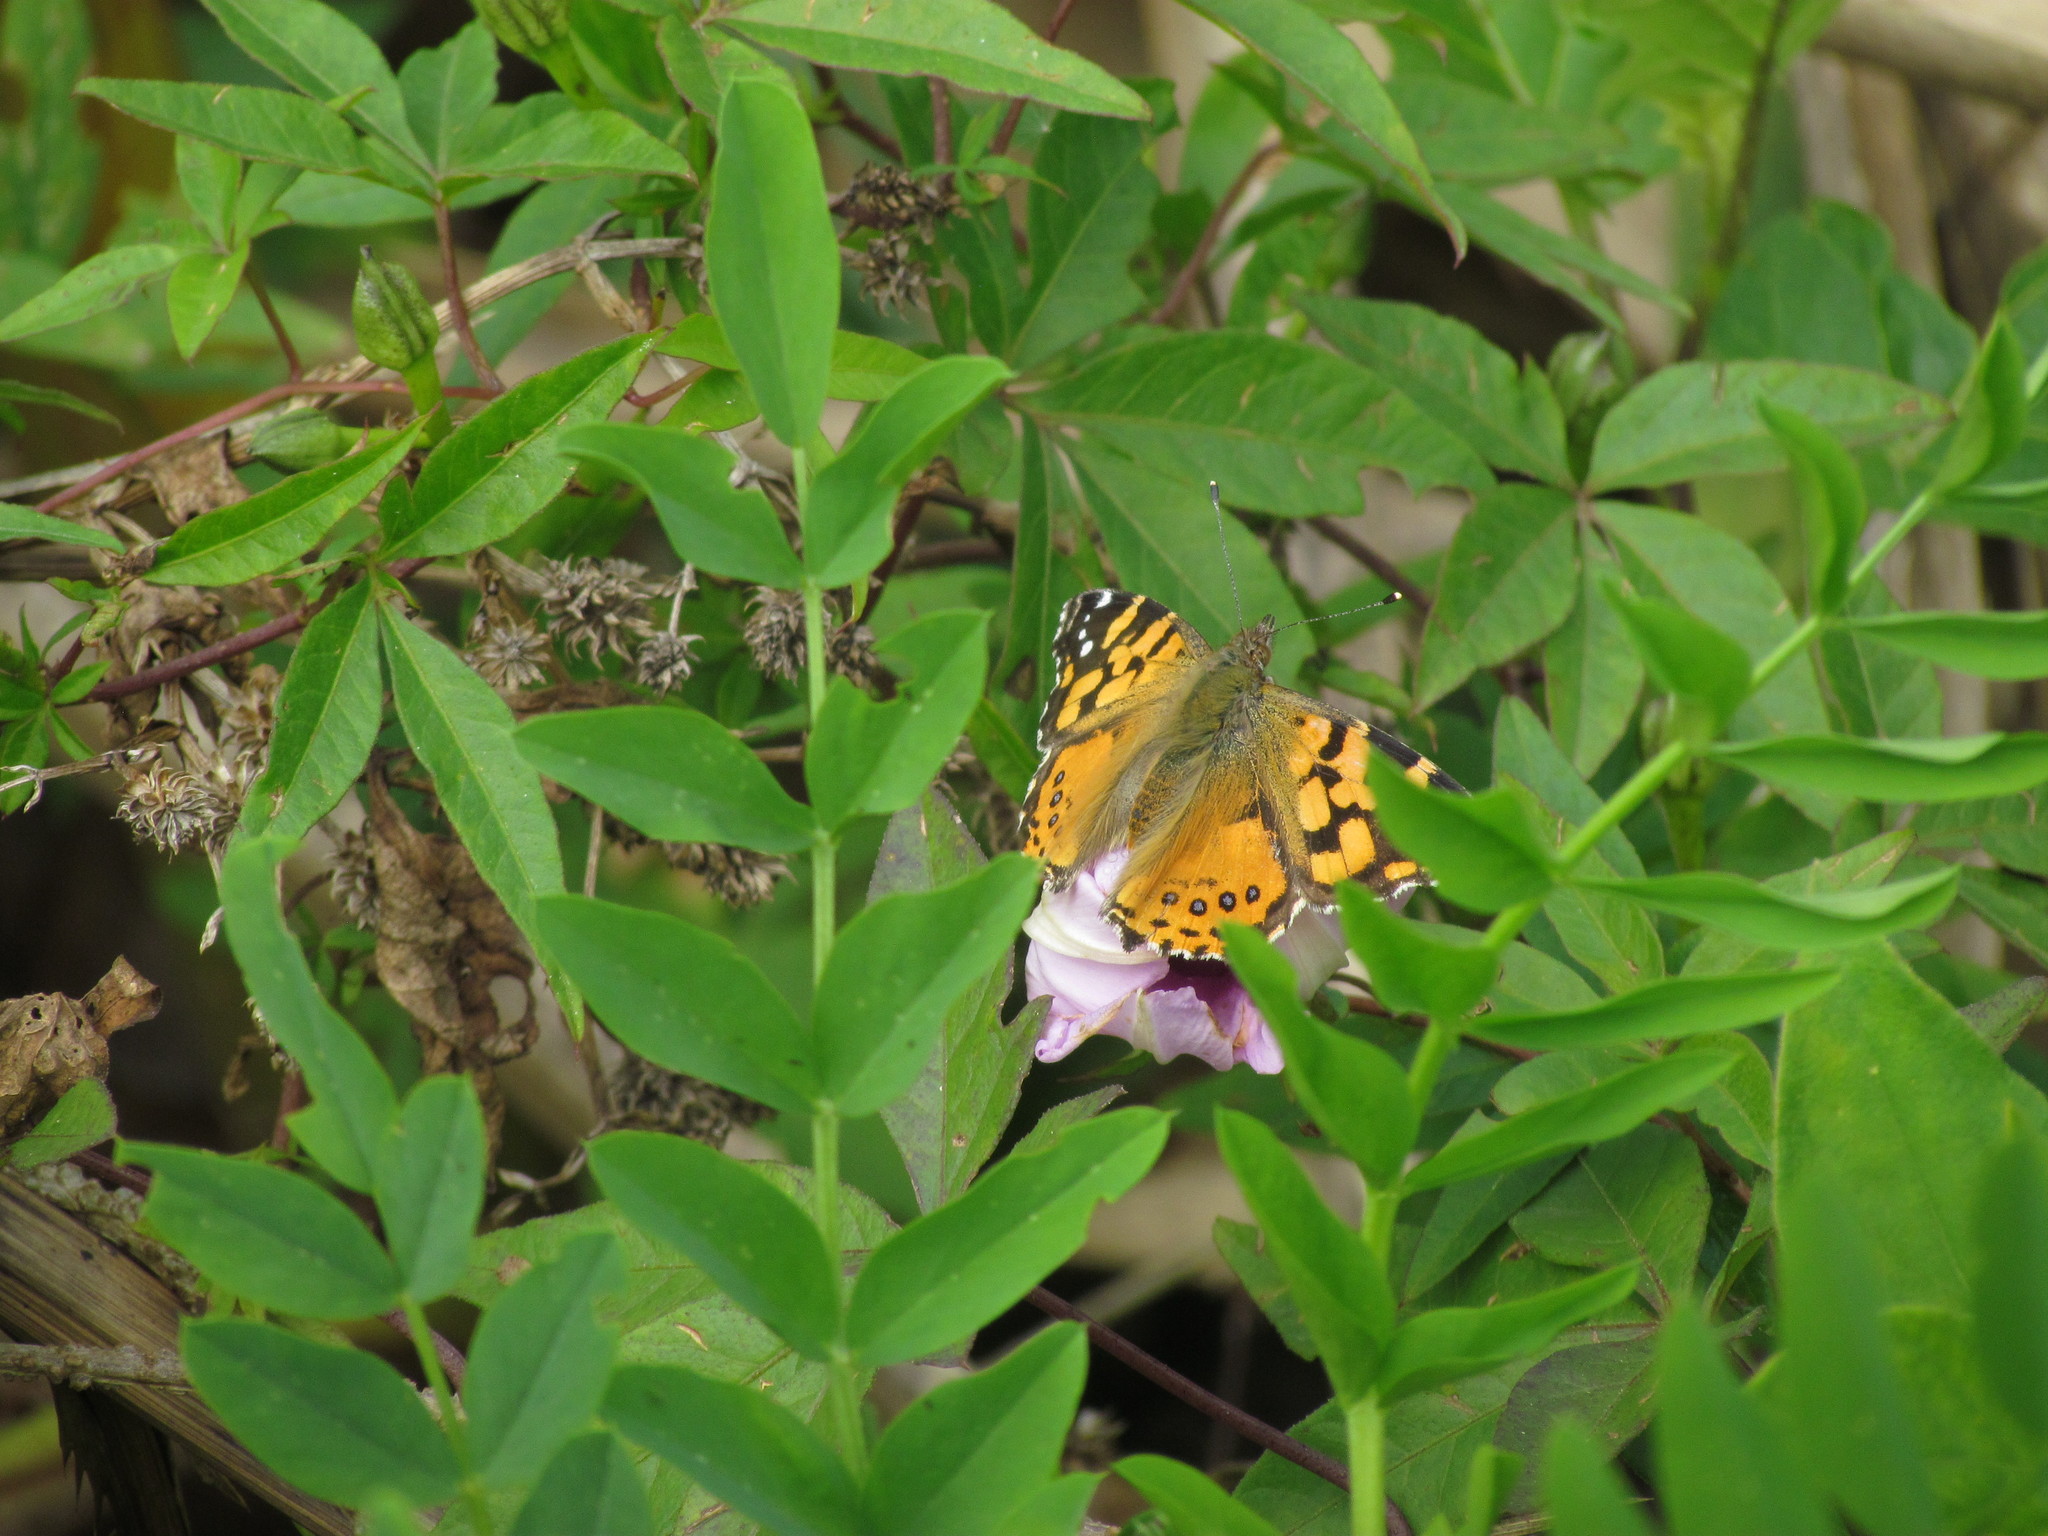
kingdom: Animalia
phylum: Arthropoda
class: Insecta
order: Lepidoptera
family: Nymphalidae
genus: Vanessa
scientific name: Vanessa carye
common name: Subtropical lady
